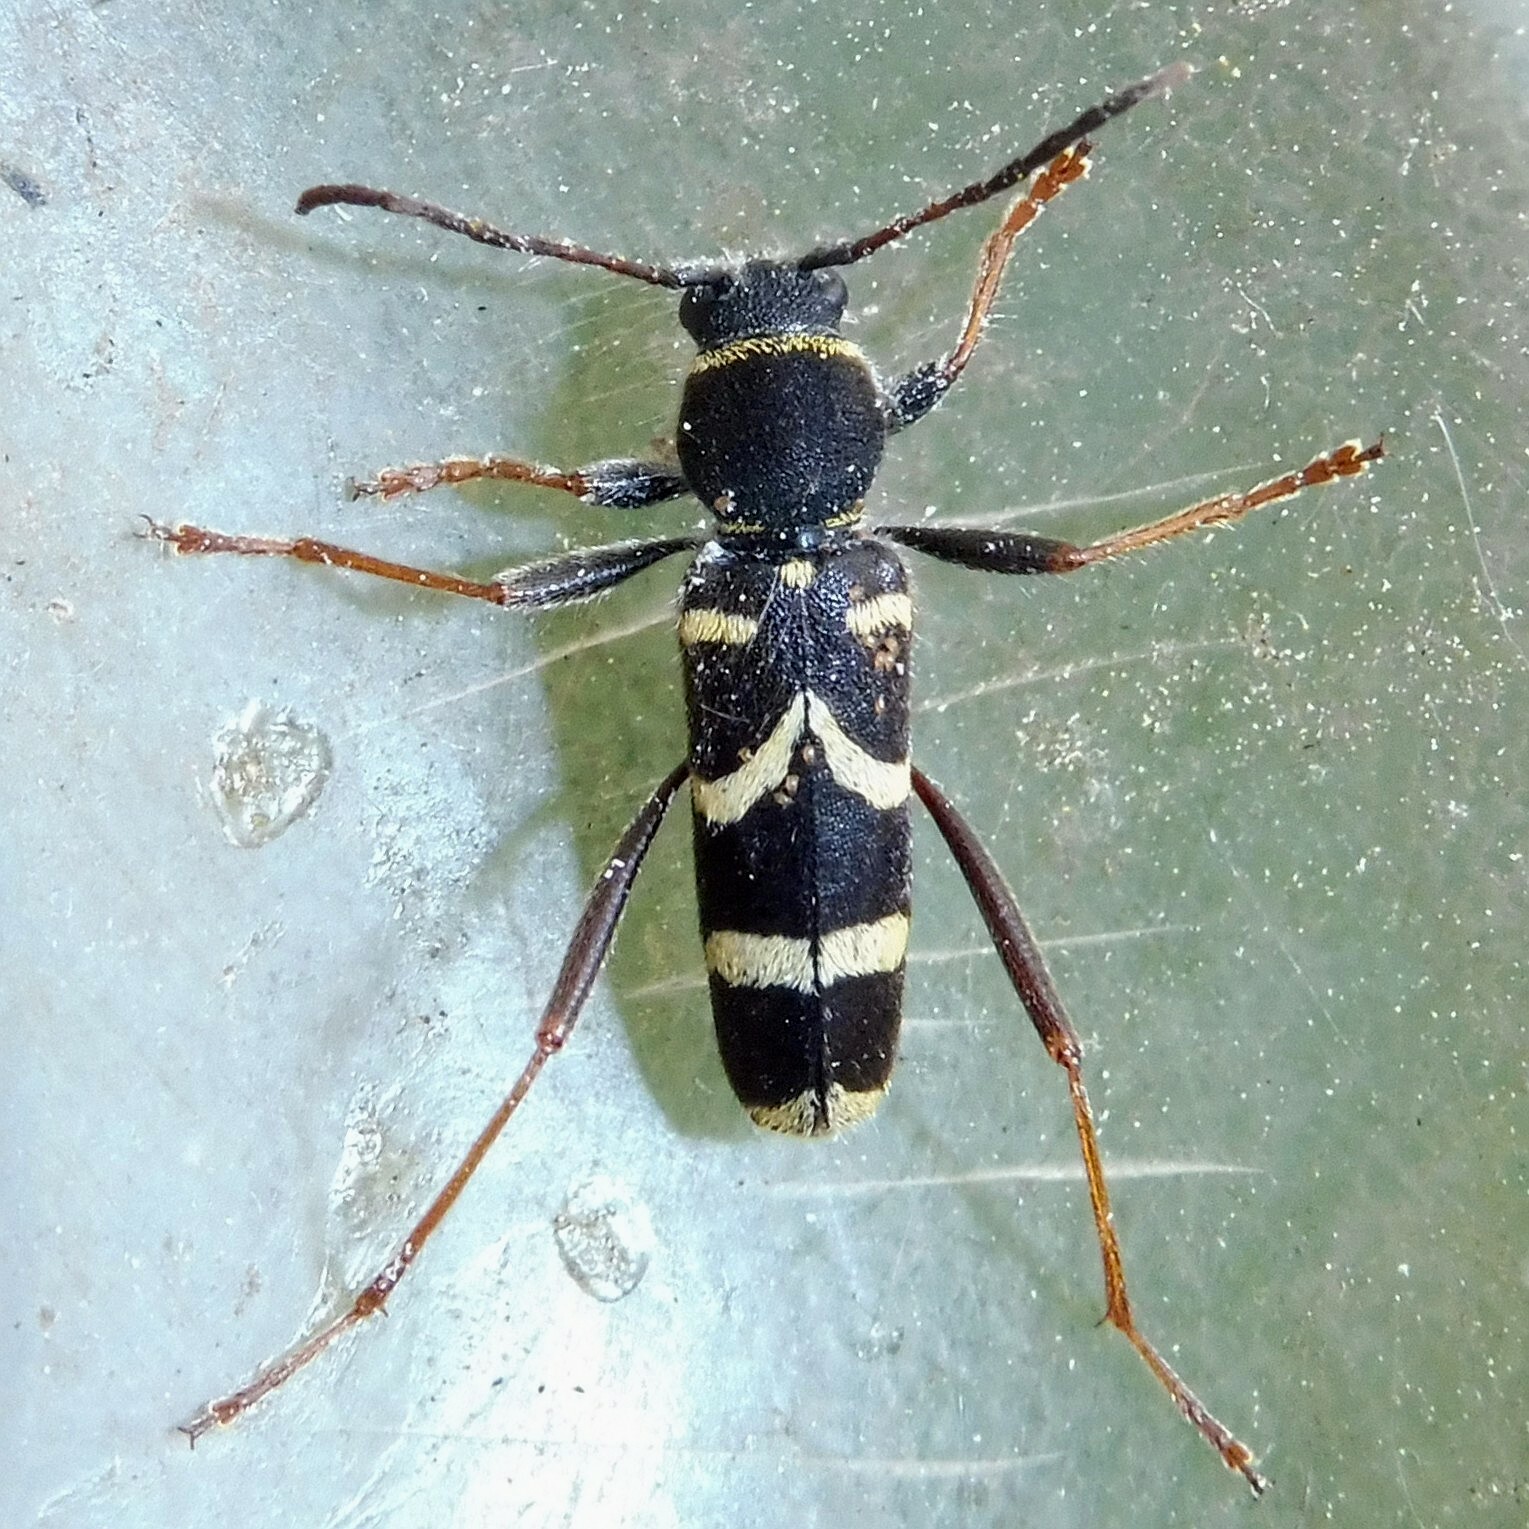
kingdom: Animalia
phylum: Arthropoda
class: Insecta
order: Coleoptera
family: Cerambycidae
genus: Clytus
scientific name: Clytus arietis
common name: Wasp beetle
